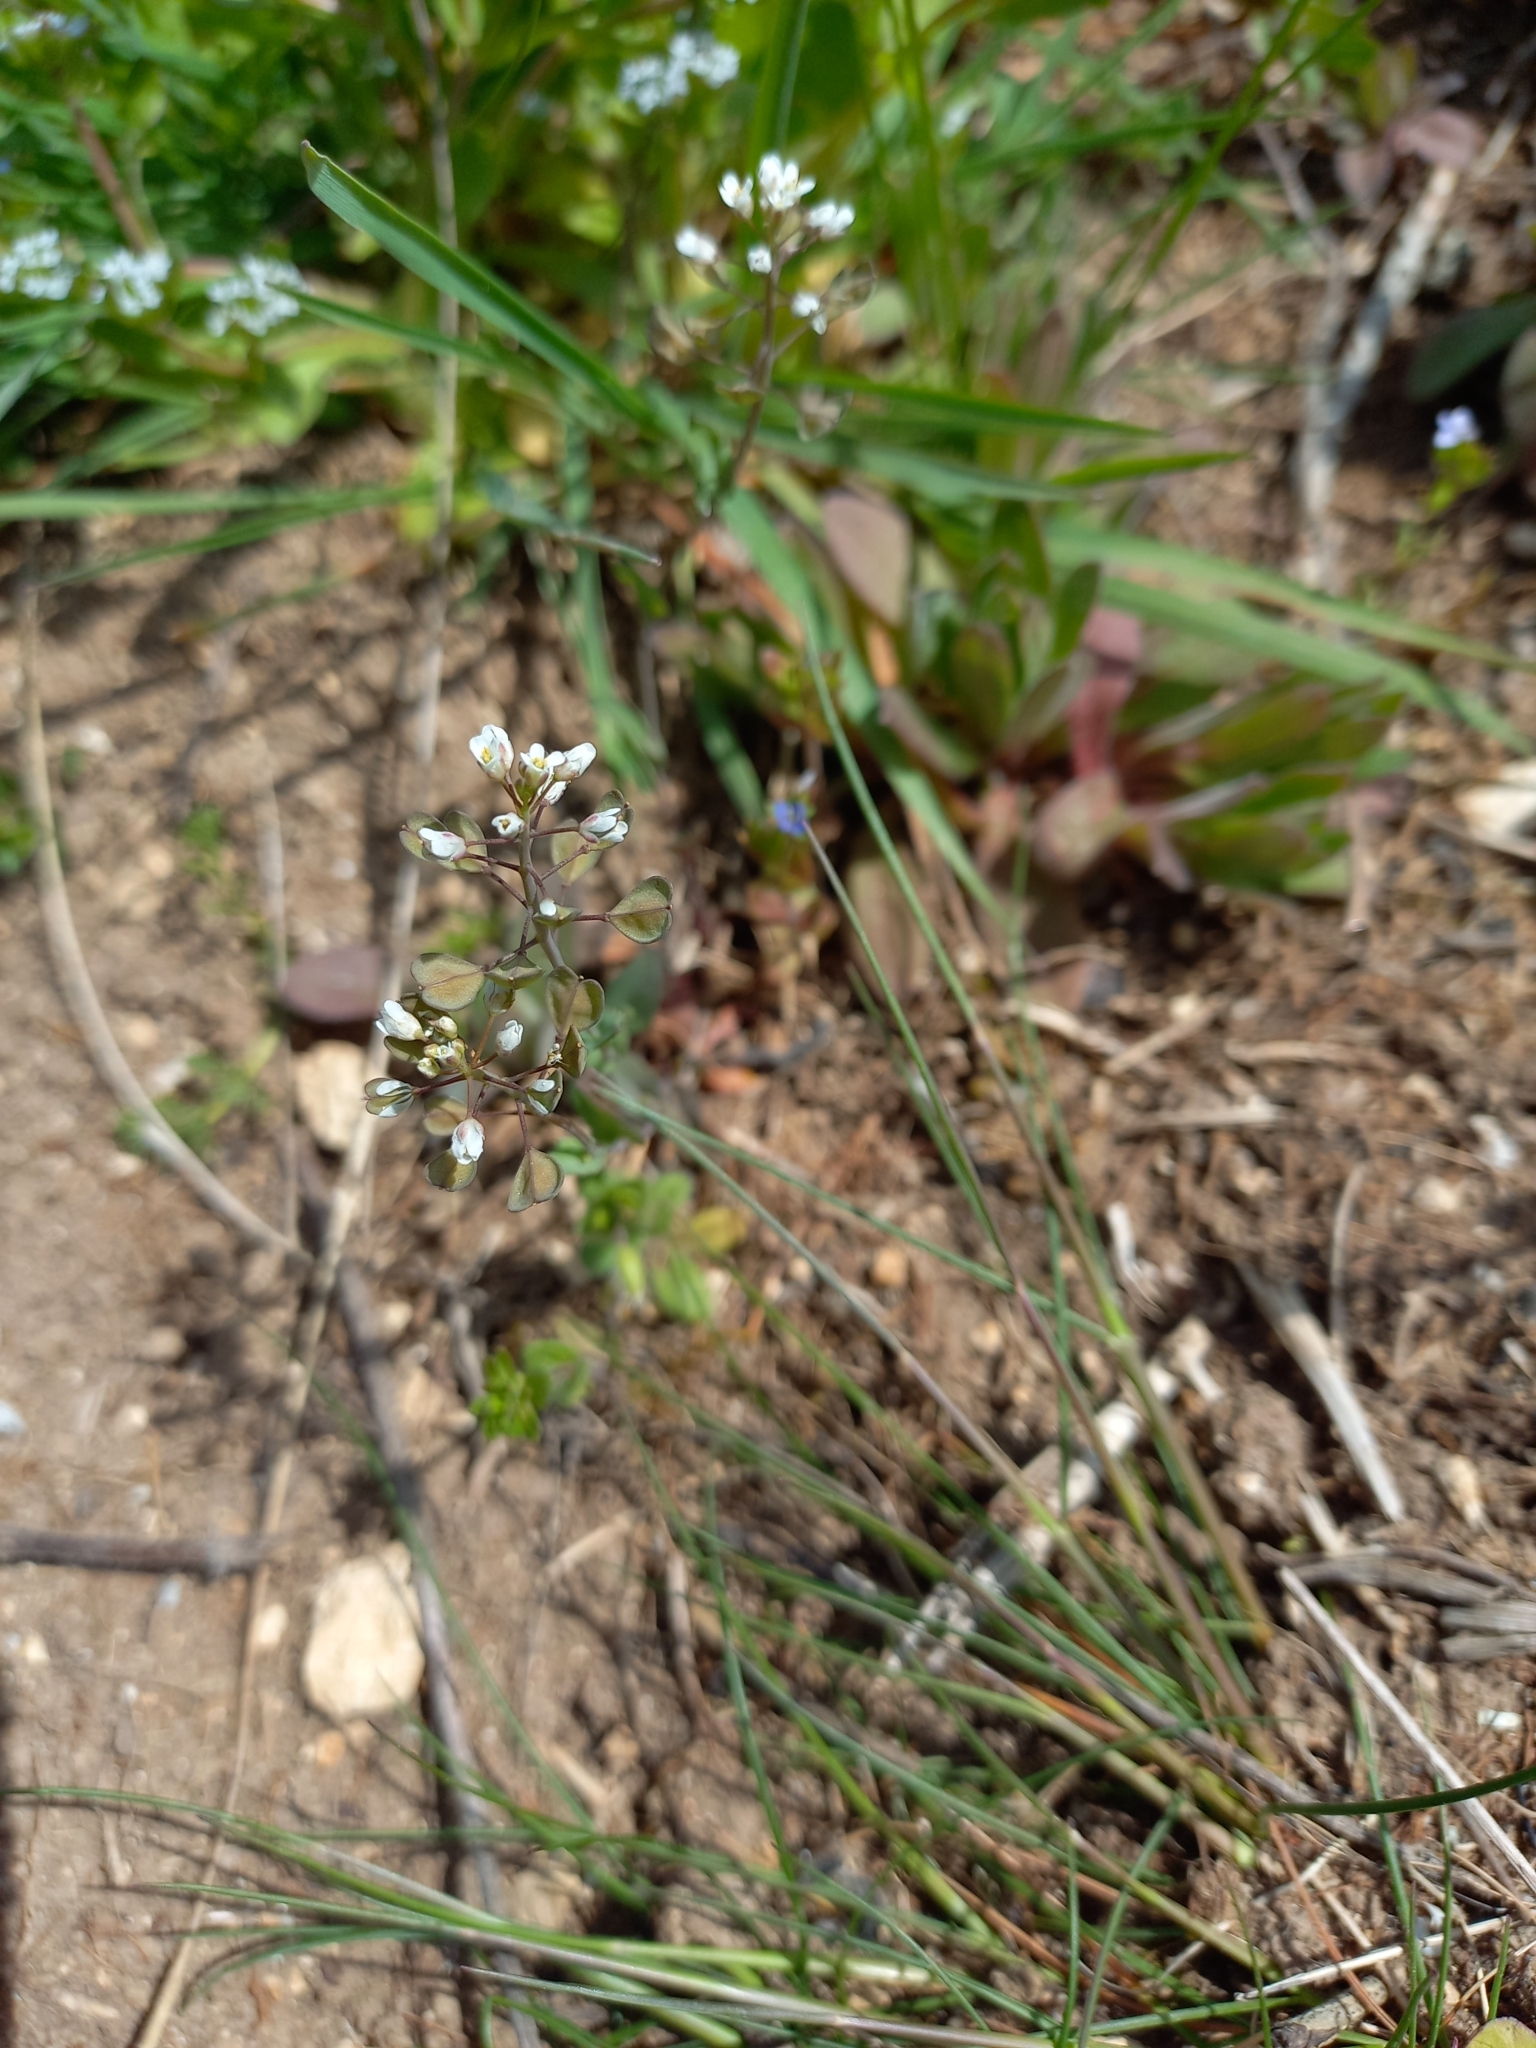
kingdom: Plantae
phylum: Tracheophyta
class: Magnoliopsida
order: Brassicales
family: Brassicaceae
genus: Noccaea
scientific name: Noccaea perfoliata
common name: Perfoliate pennycress
